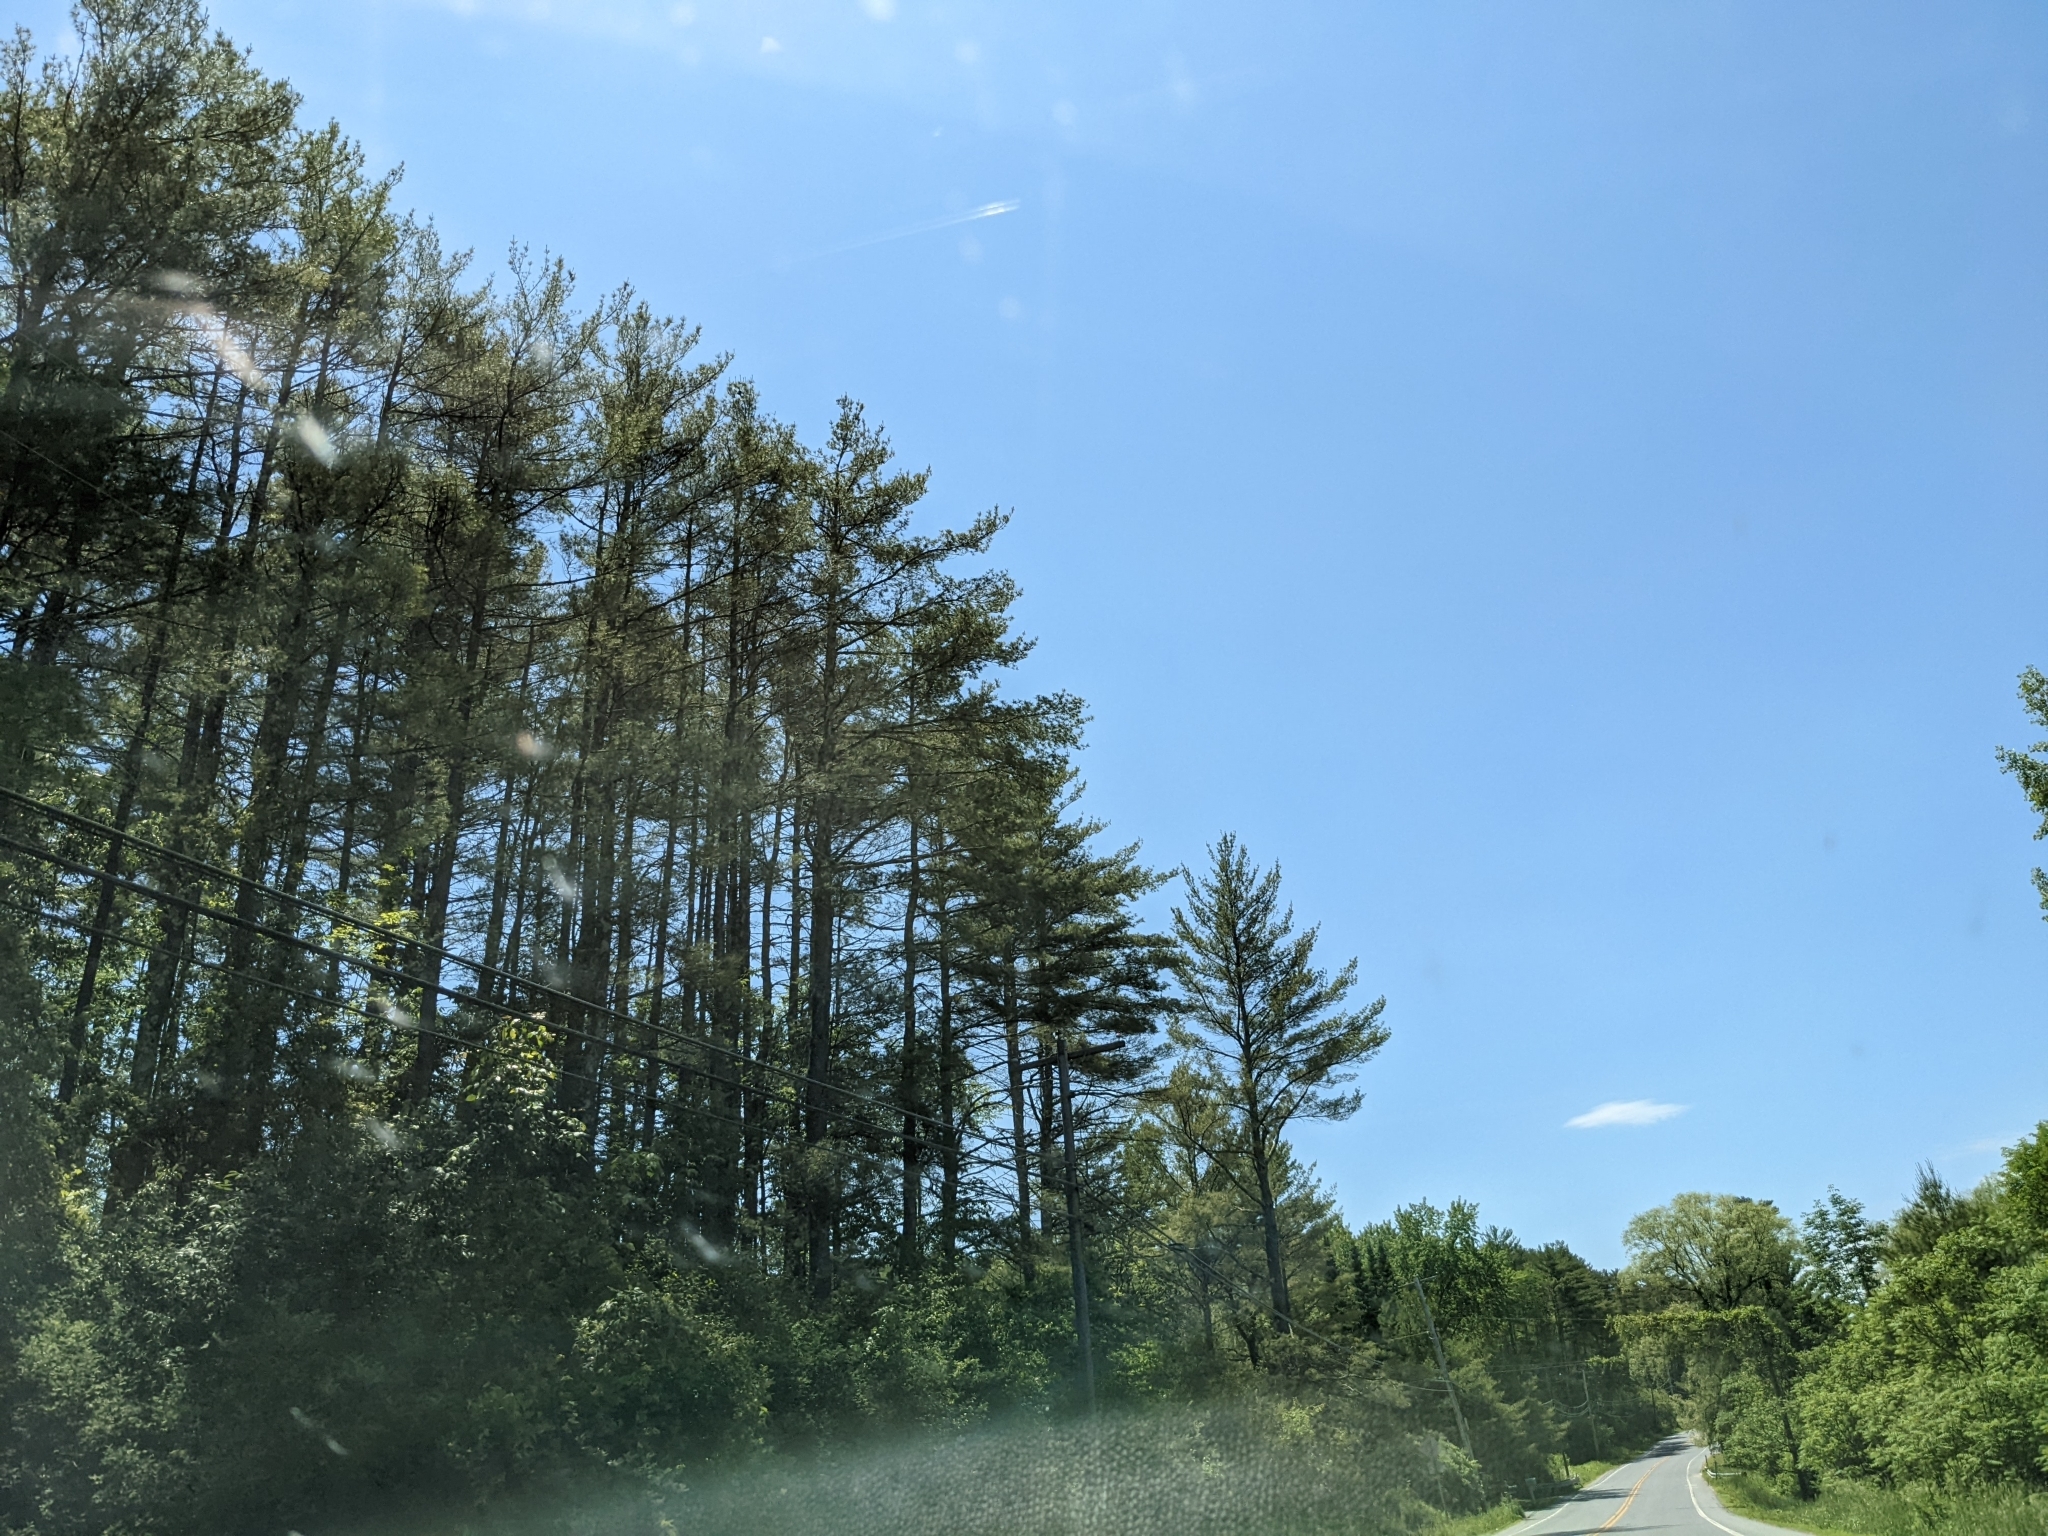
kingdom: Plantae
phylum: Tracheophyta
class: Pinopsida
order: Pinales
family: Pinaceae
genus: Pinus
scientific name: Pinus strobus
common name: Weymouth pine
